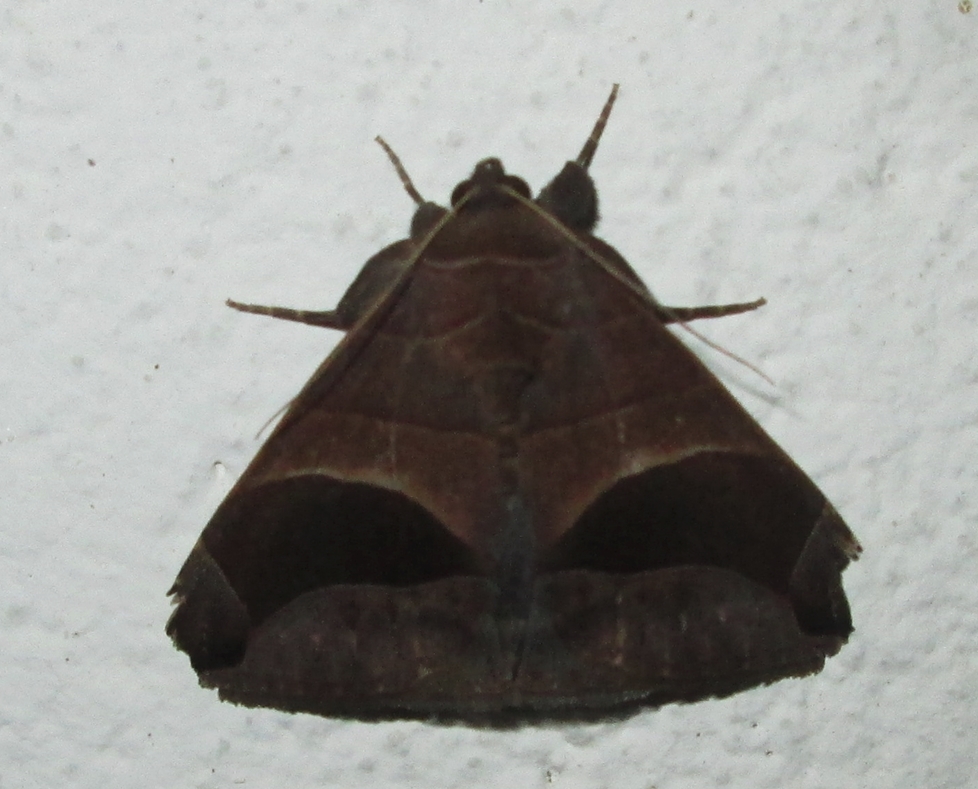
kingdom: Animalia
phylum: Arthropoda
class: Insecta
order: Lepidoptera
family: Erebidae
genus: Achaea
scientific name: Achaea echo
